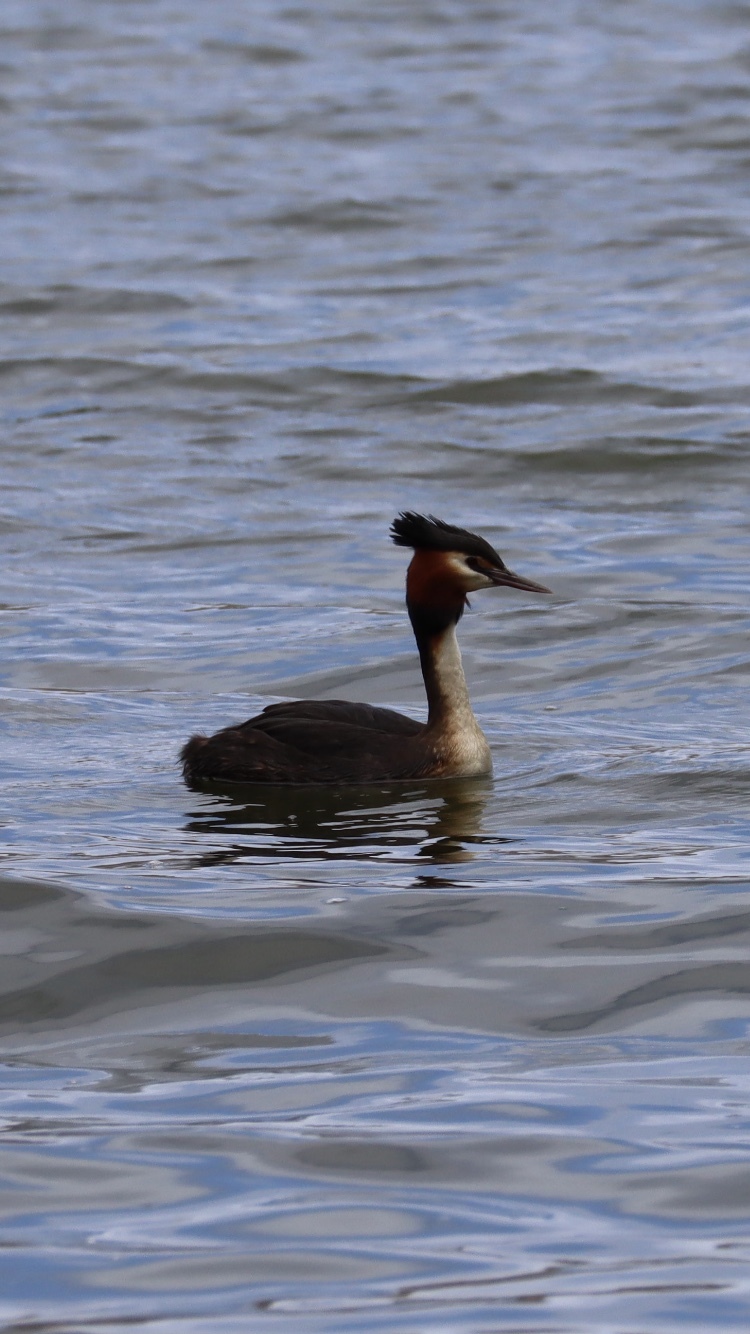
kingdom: Animalia
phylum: Chordata
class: Aves
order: Podicipediformes
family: Podicipedidae
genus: Podiceps
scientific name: Podiceps cristatus
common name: Great crested grebe
